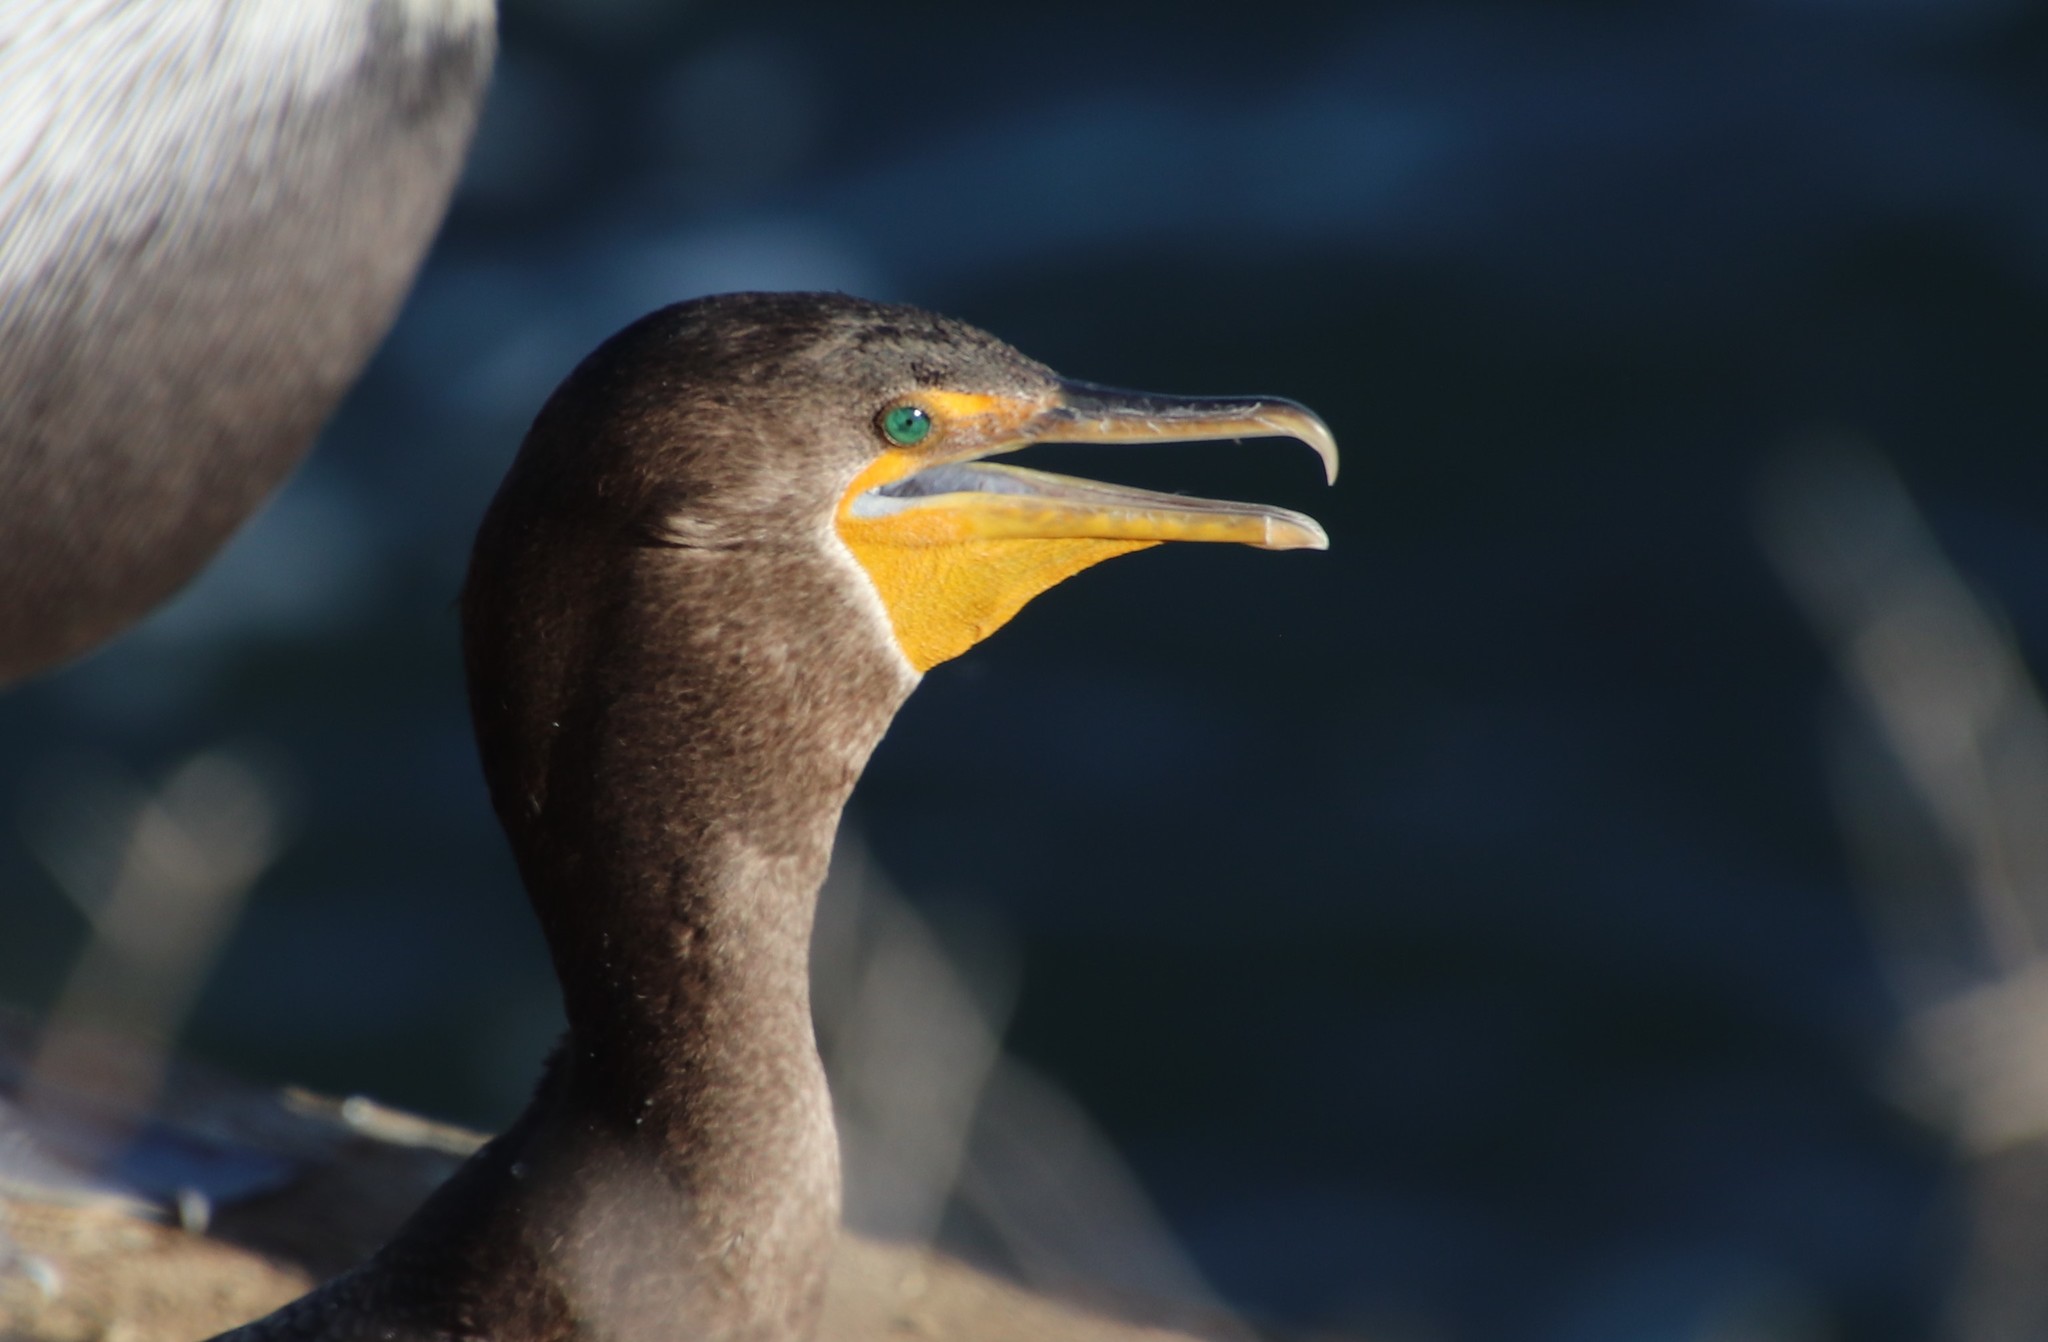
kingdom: Animalia
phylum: Chordata
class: Aves
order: Suliformes
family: Phalacrocoracidae
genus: Phalacrocorax
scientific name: Phalacrocorax auritus
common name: Double-crested cormorant
